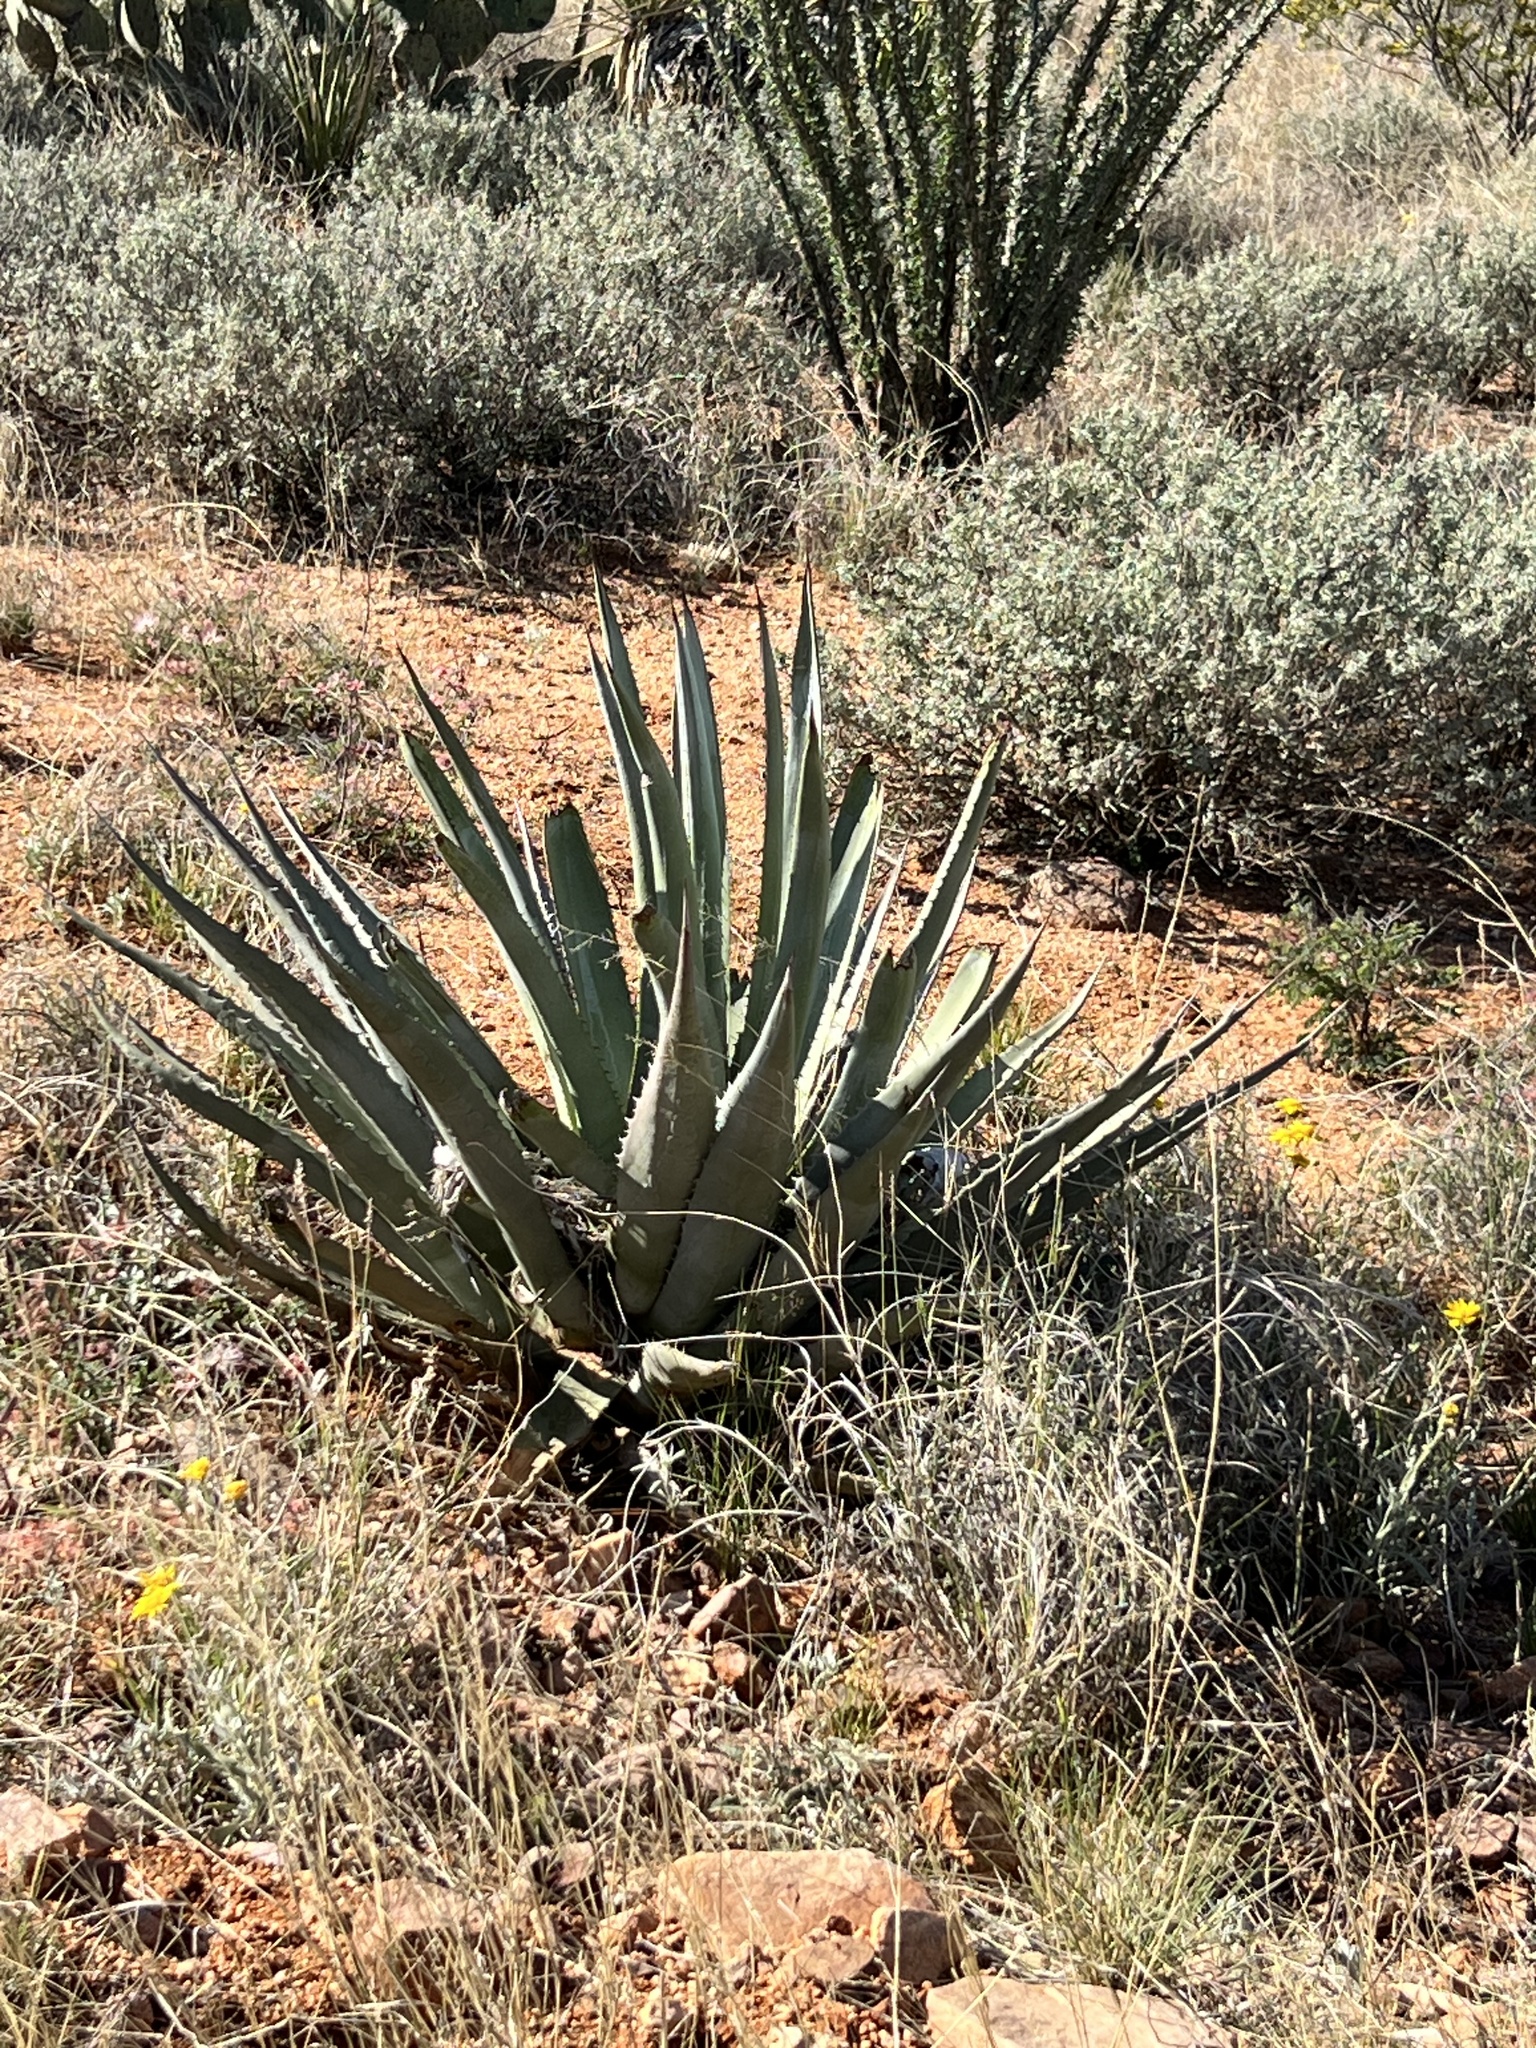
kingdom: Plantae
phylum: Tracheophyta
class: Liliopsida
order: Asparagales
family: Asparagaceae
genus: Agave
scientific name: Agave palmeri
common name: Palmer agave
